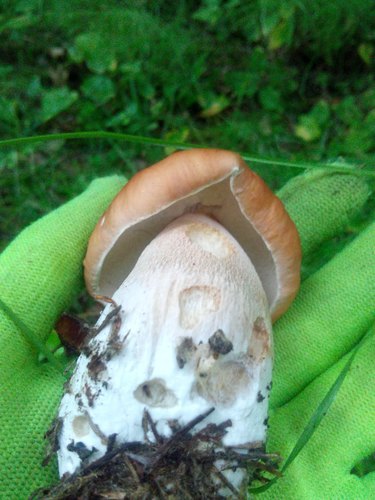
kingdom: Fungi
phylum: Basidiomycota
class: Agaricomycetes
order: Boletales
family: Boletaceae
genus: Boletus
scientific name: Boletus edulis
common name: Cep
